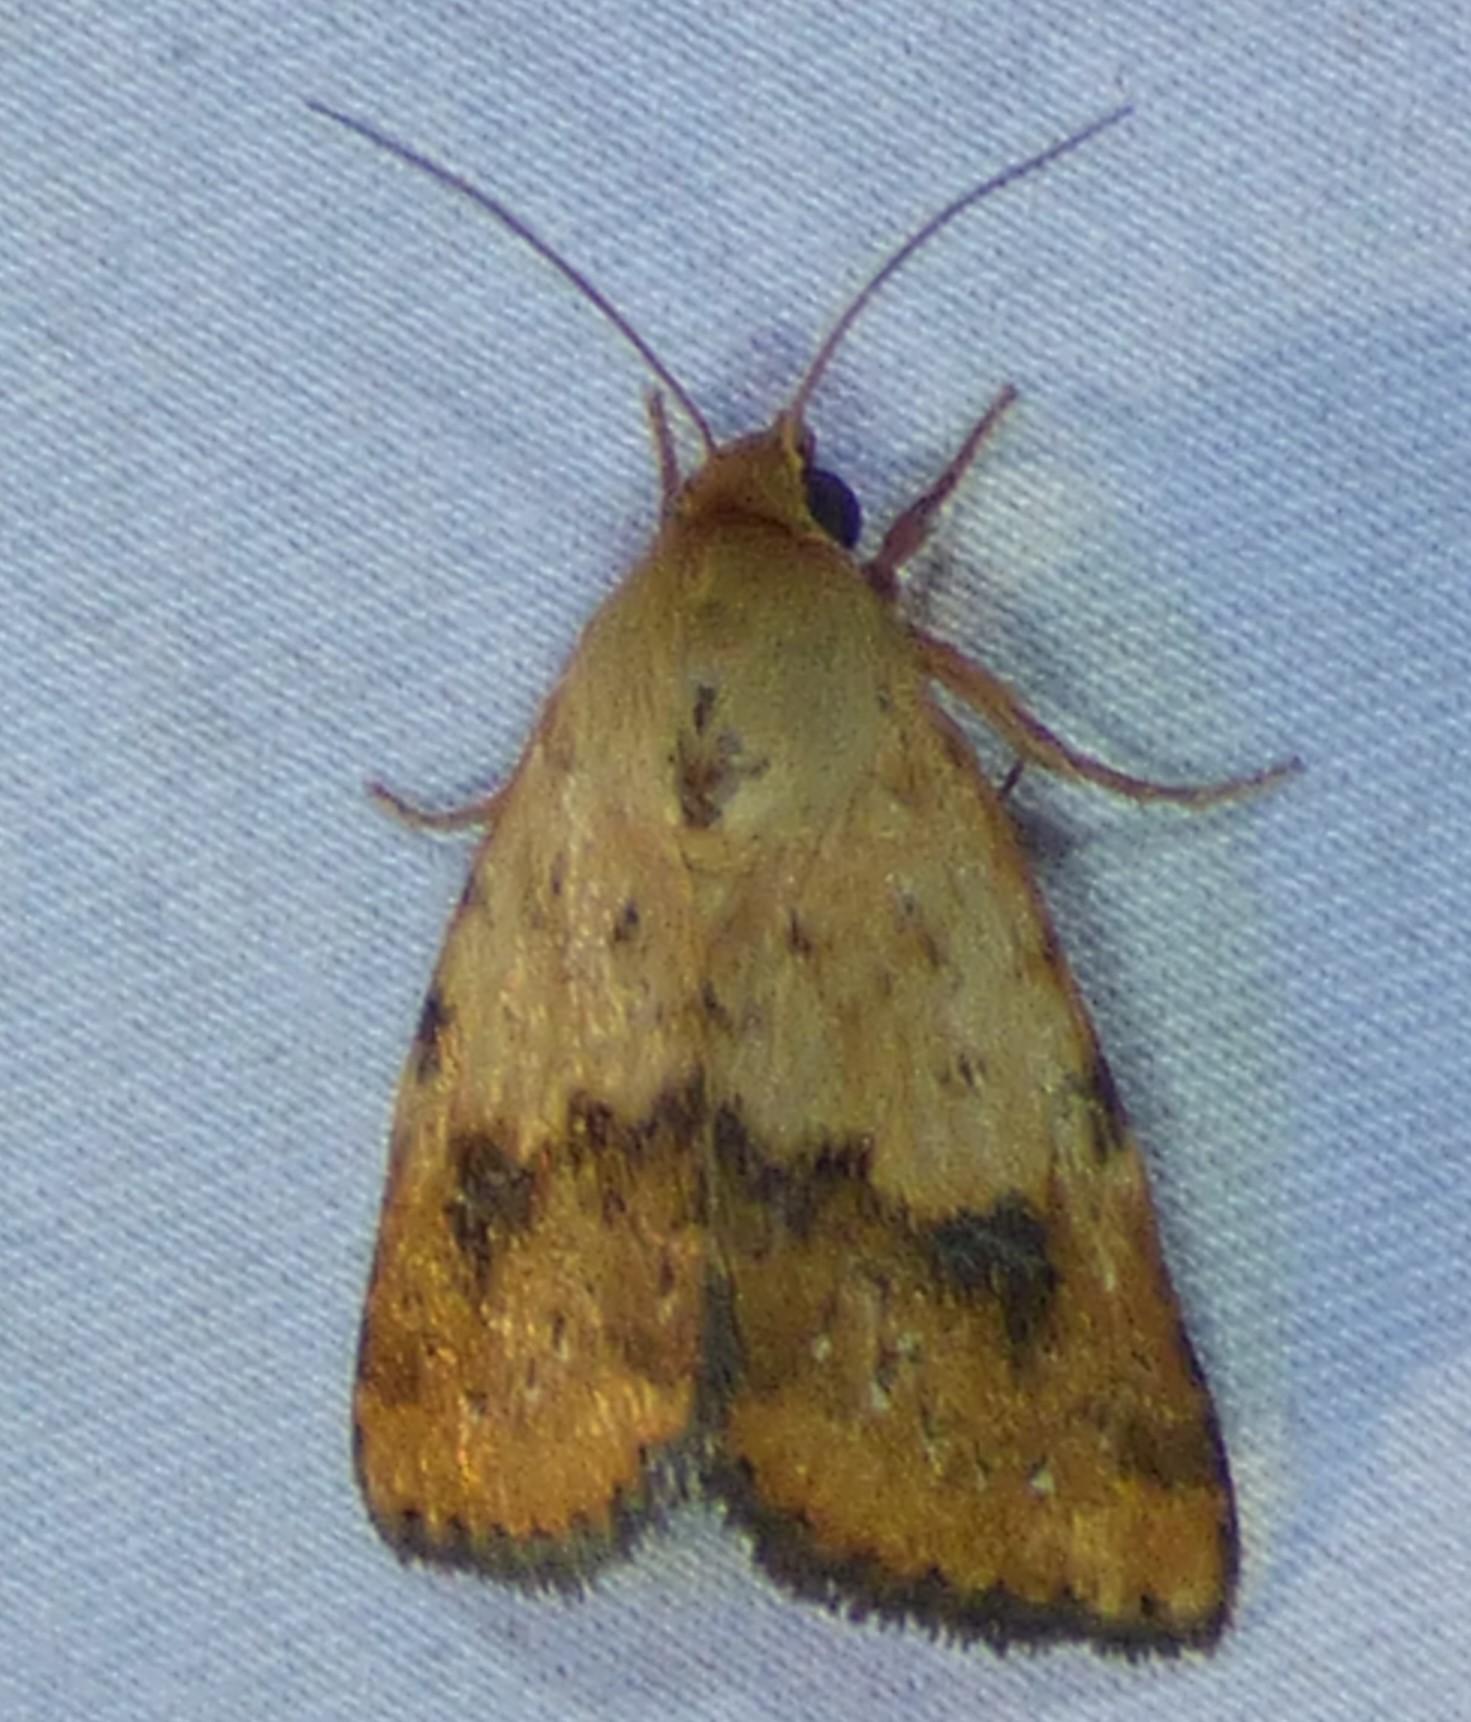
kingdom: Animalia
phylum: Arthropoda
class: Insecta
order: Lepidoptera
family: Noctuidae
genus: Heliocheilus
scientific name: Heliocheilus lupata
